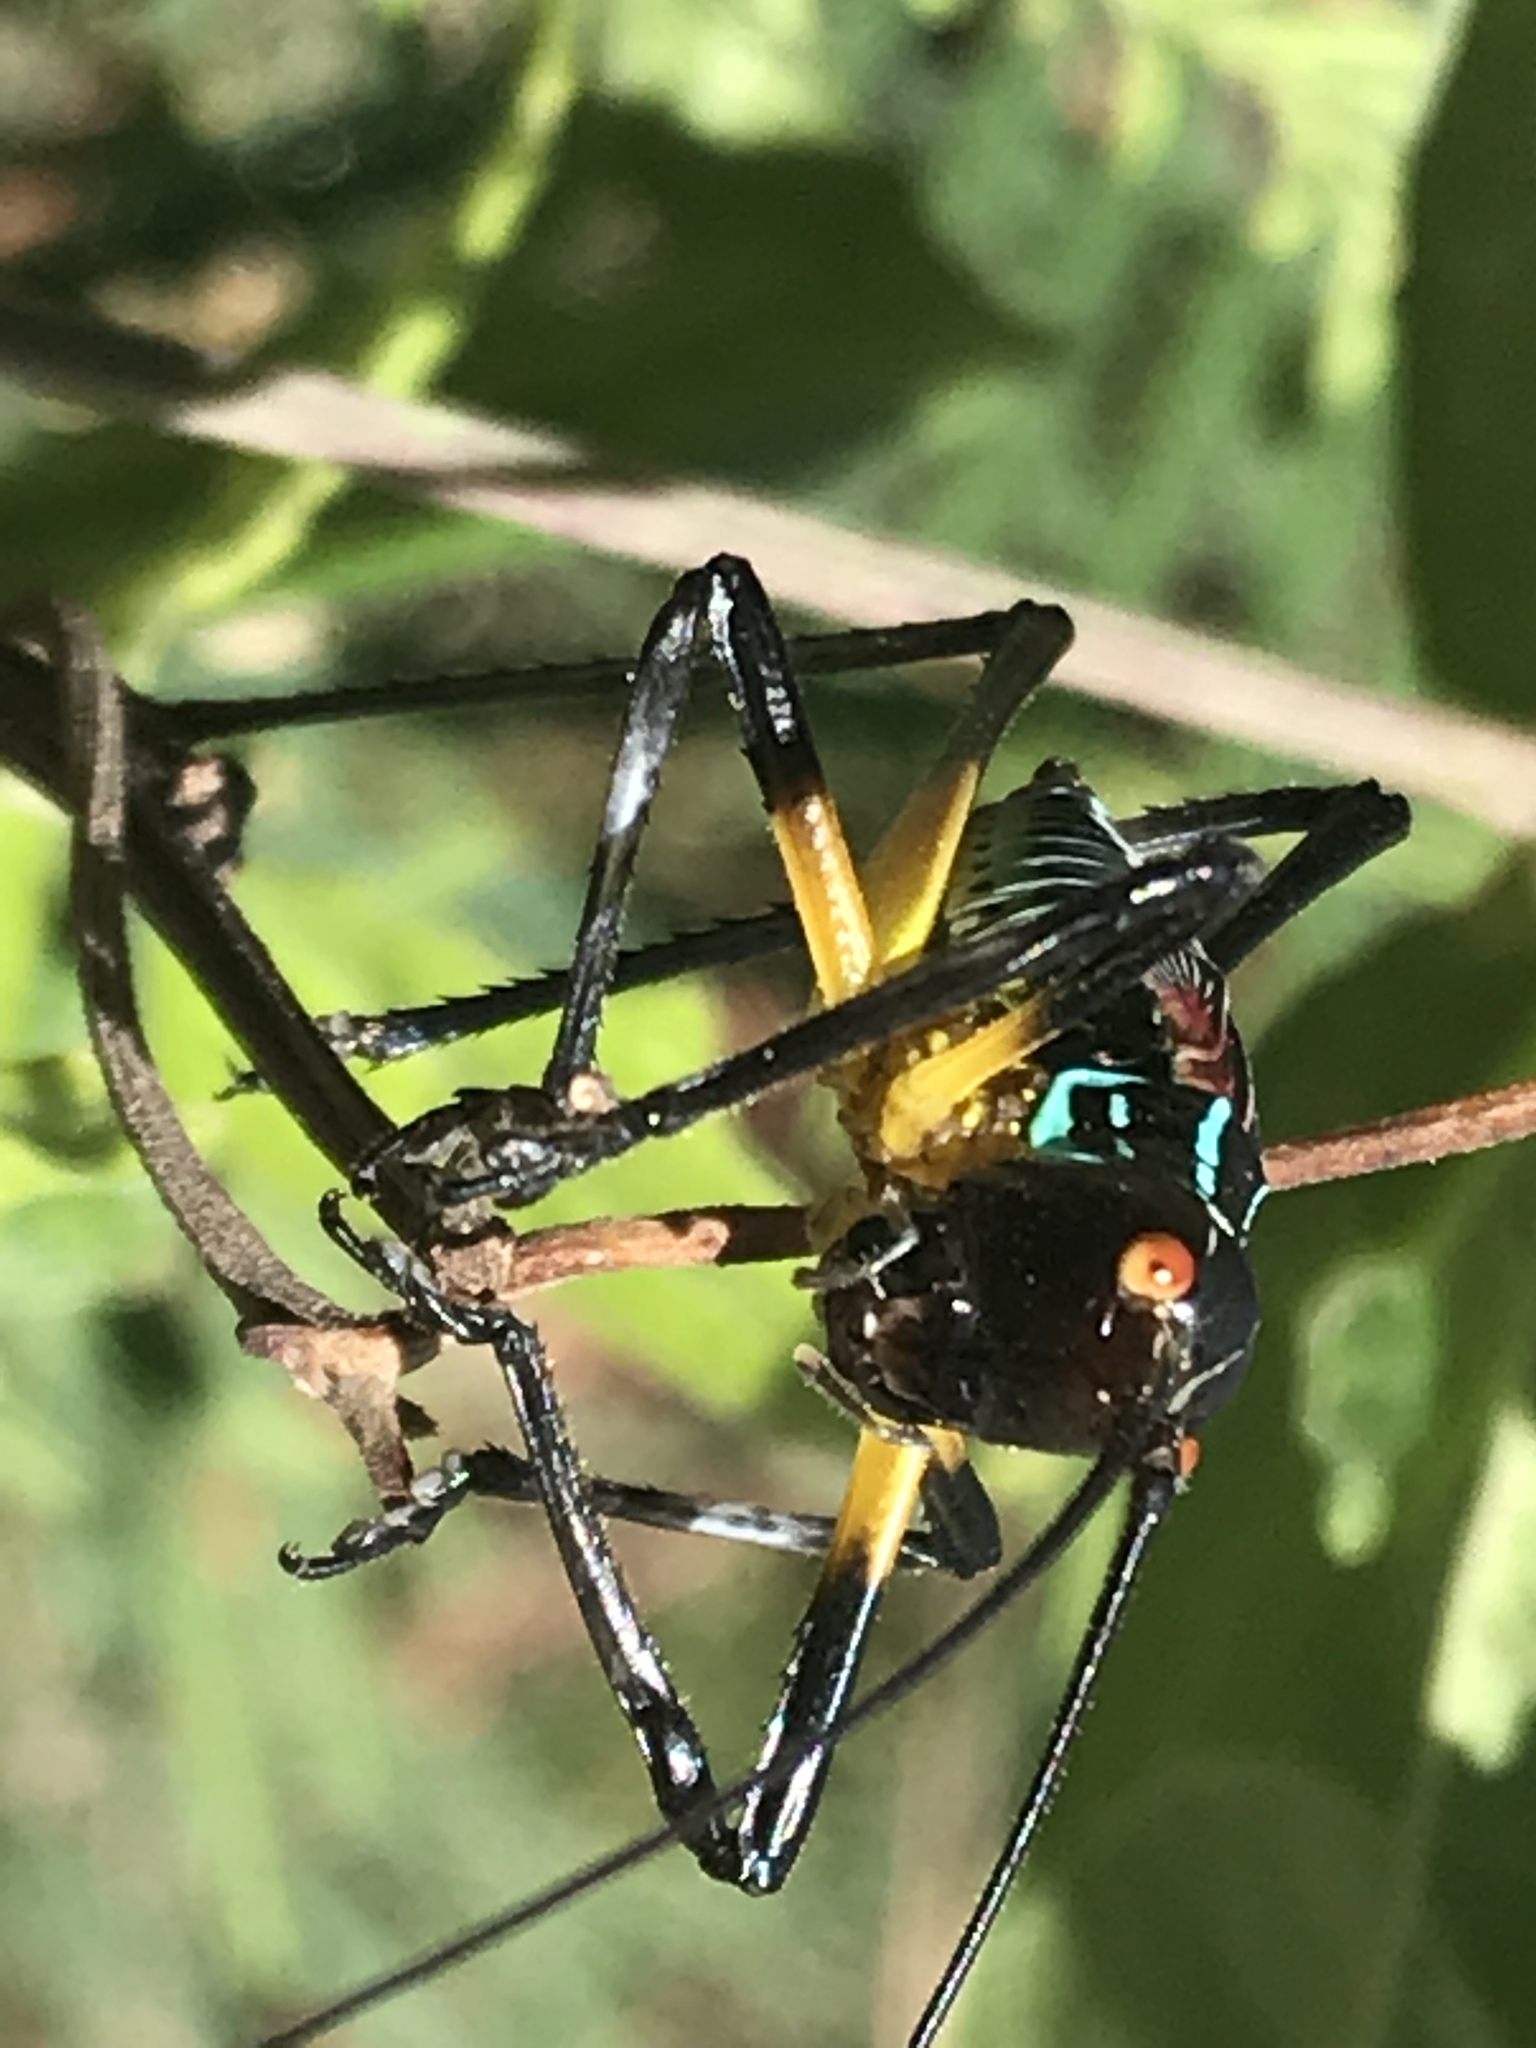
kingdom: Animalia
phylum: Arthropoda
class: Insecta
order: Orthoptera
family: Tettigoniidae
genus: Pterophylla
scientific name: Pterophylla beltrani
